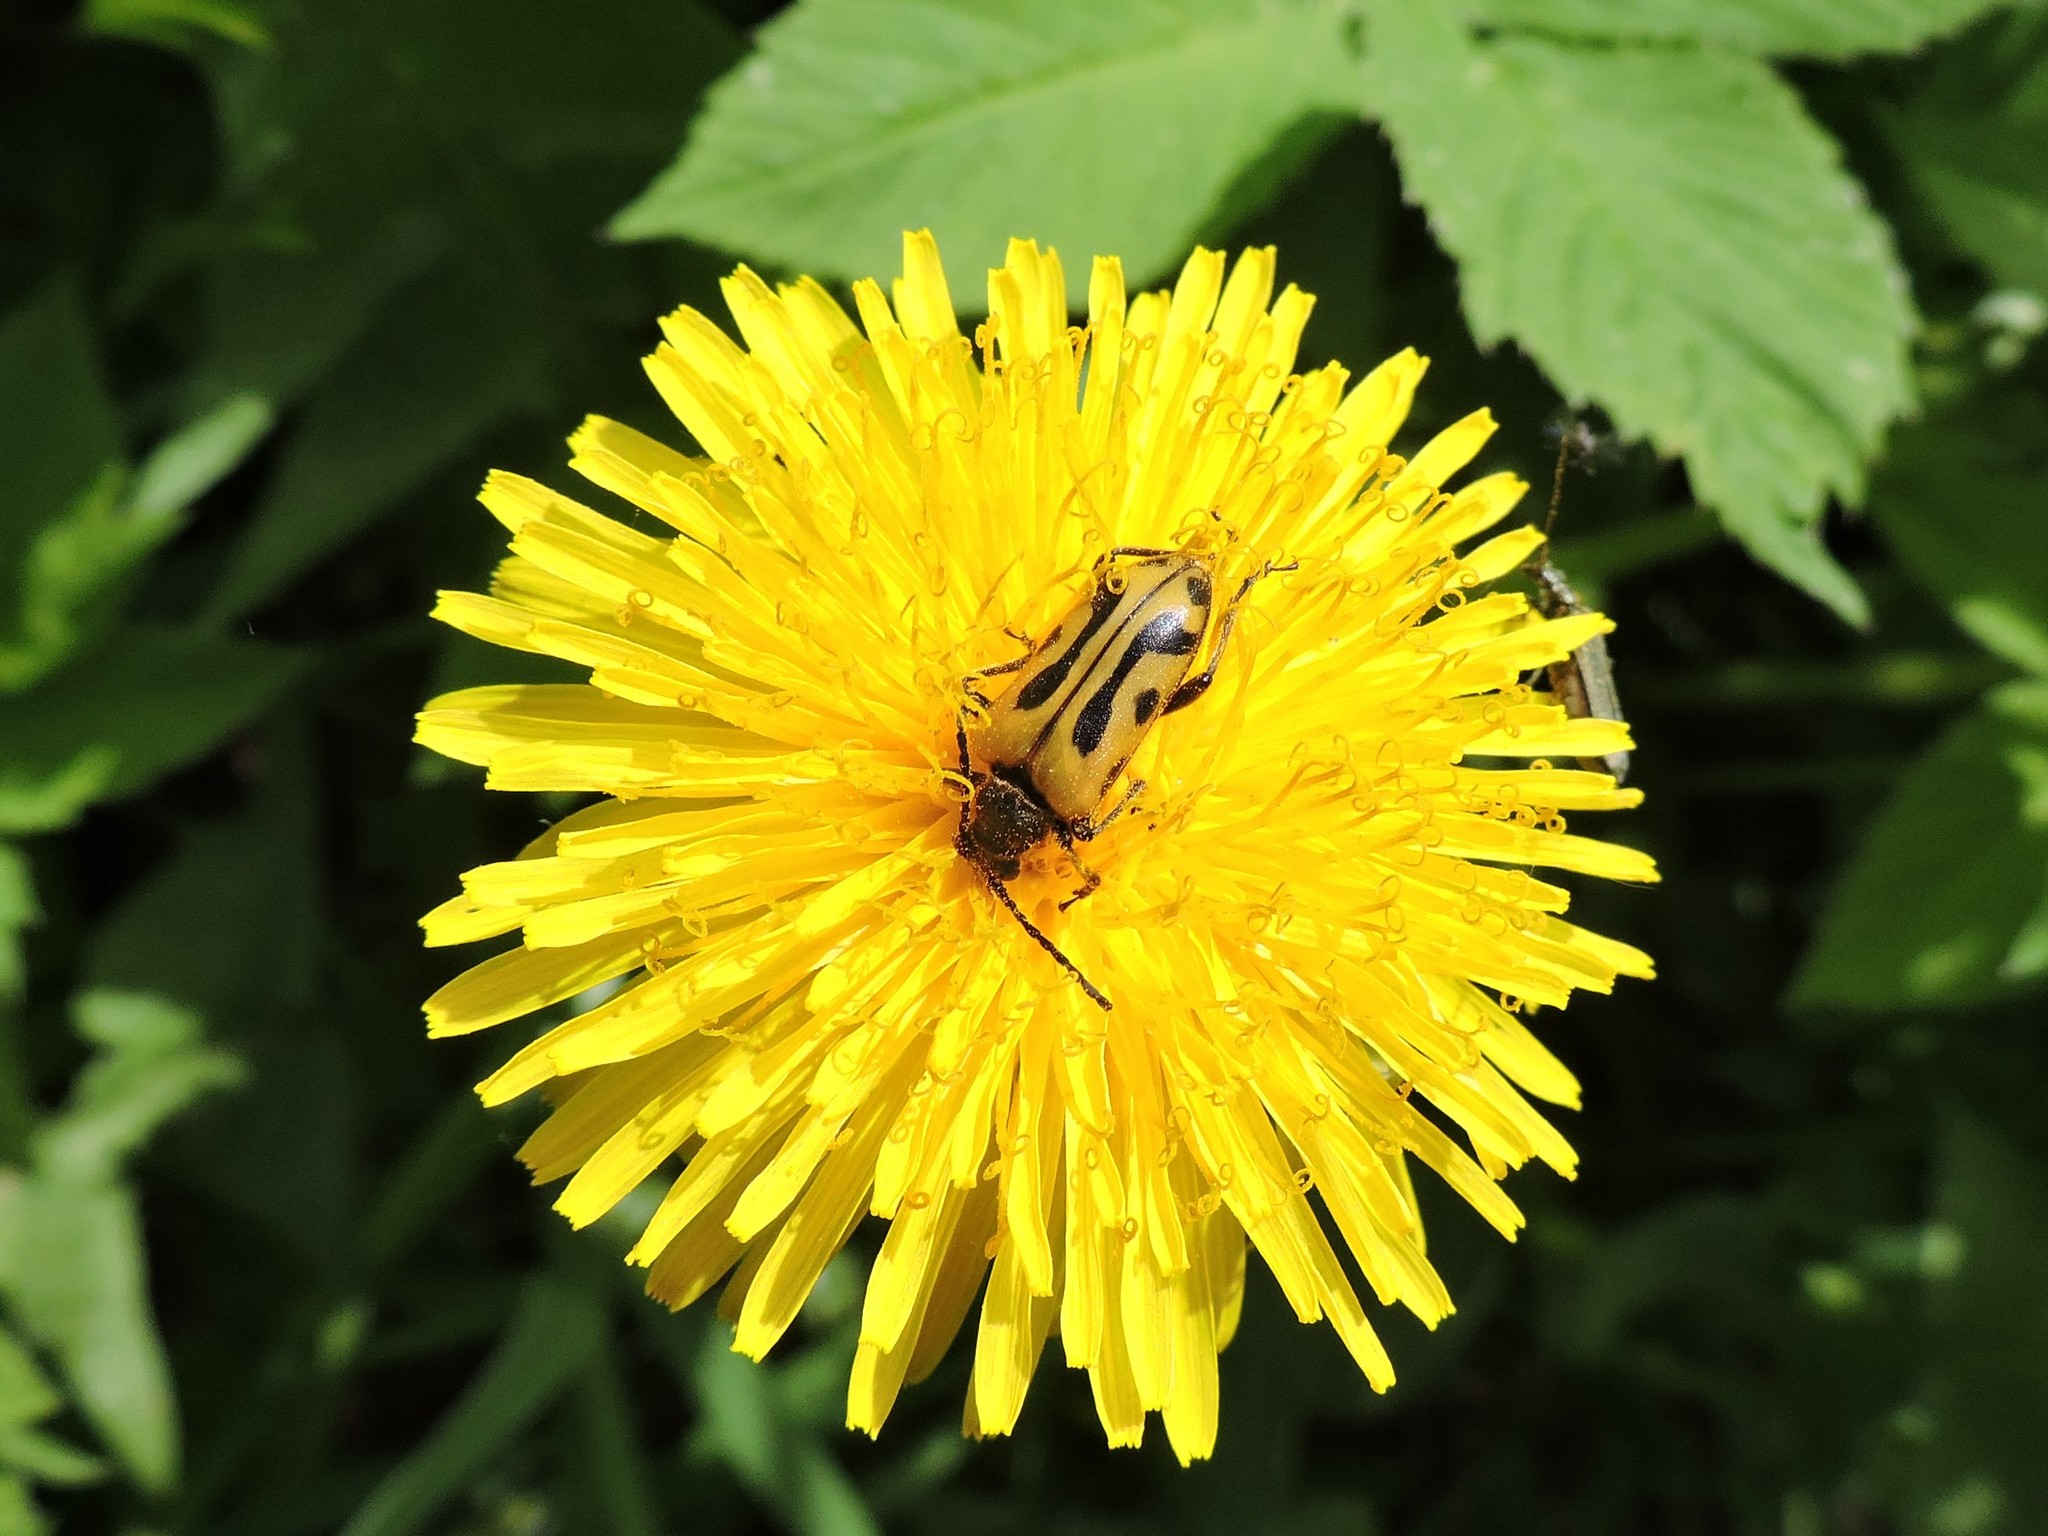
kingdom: Animalia
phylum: Arthropoda
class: Insecta
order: Coleoptera
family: Cerambycidae
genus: Brachyta
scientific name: Brachyta interrogationis
